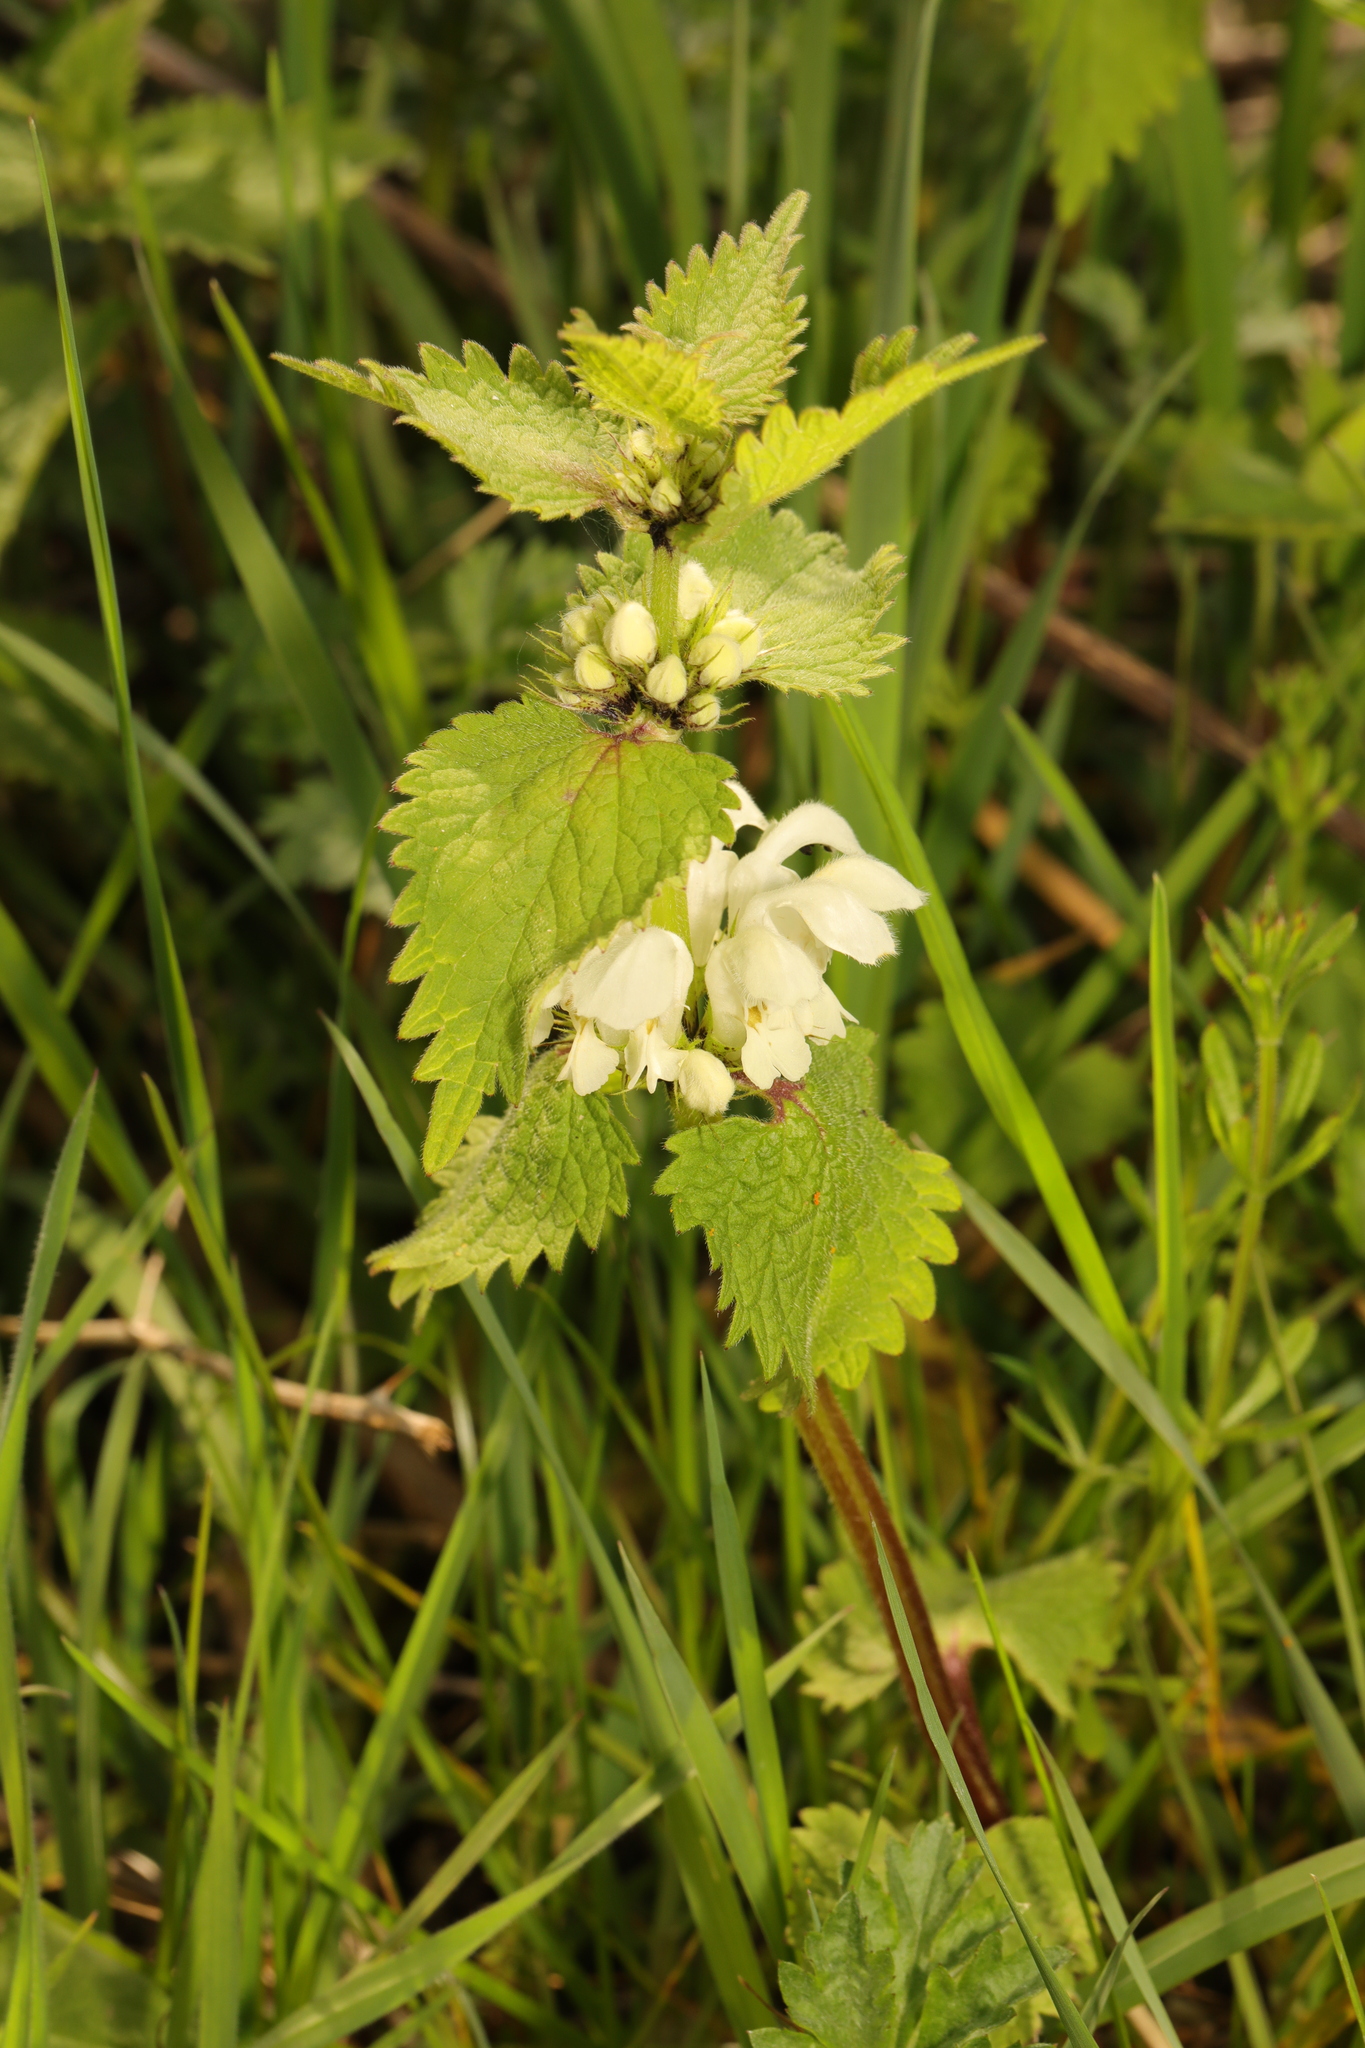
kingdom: Plantae
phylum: Tracheophyta
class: Magnoliopsida
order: Lamiales
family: Lamiaceae
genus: Lamium
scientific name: Lamium album
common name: White dead-nettle
